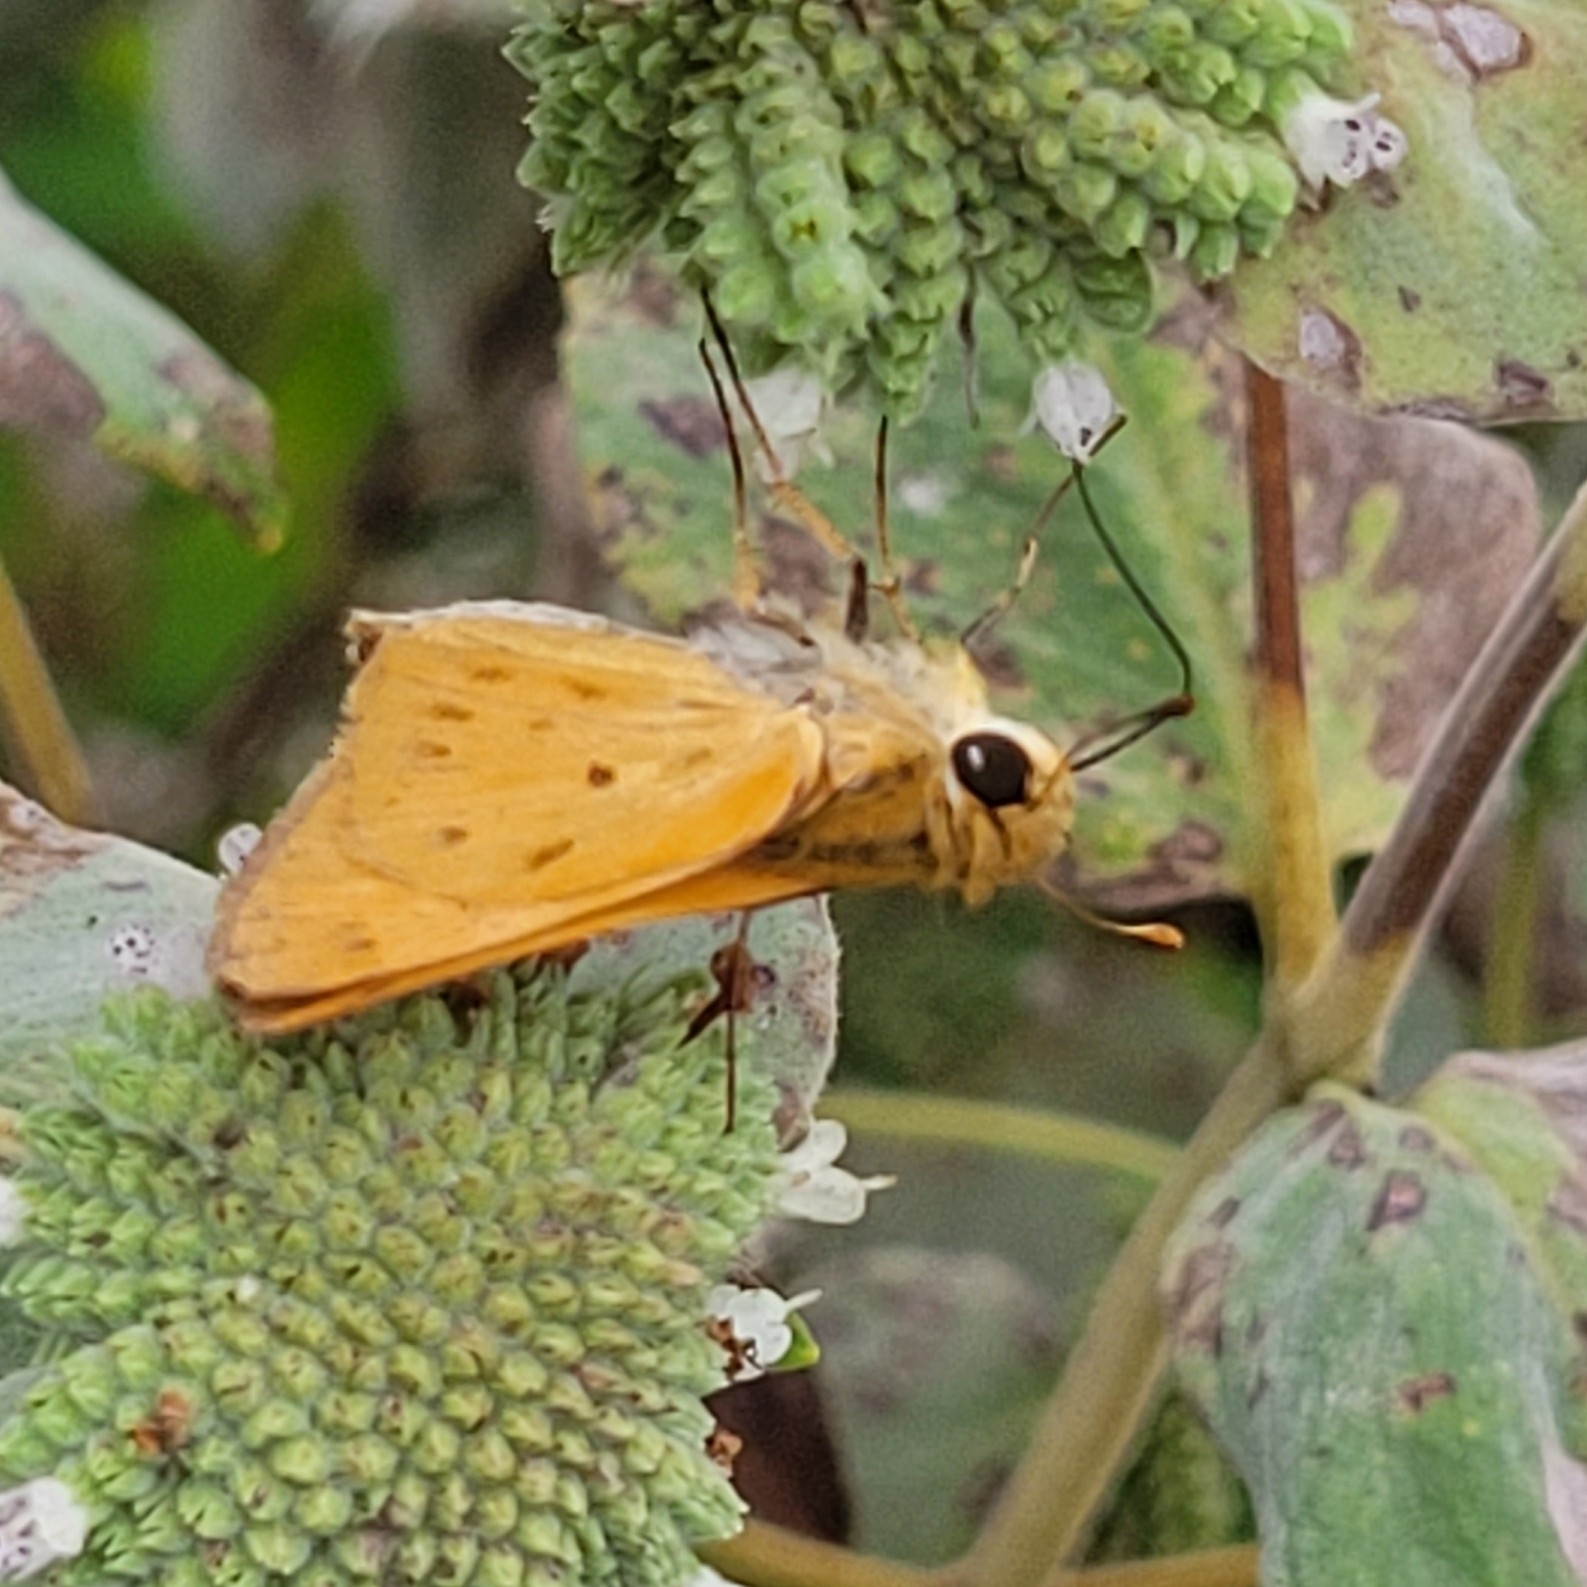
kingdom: Animalia
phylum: Arthropoda
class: Insecta
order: Lepidoptera
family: Hesperiidae
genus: Hylephila
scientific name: Hylephila phyleus
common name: Fiery skipper
